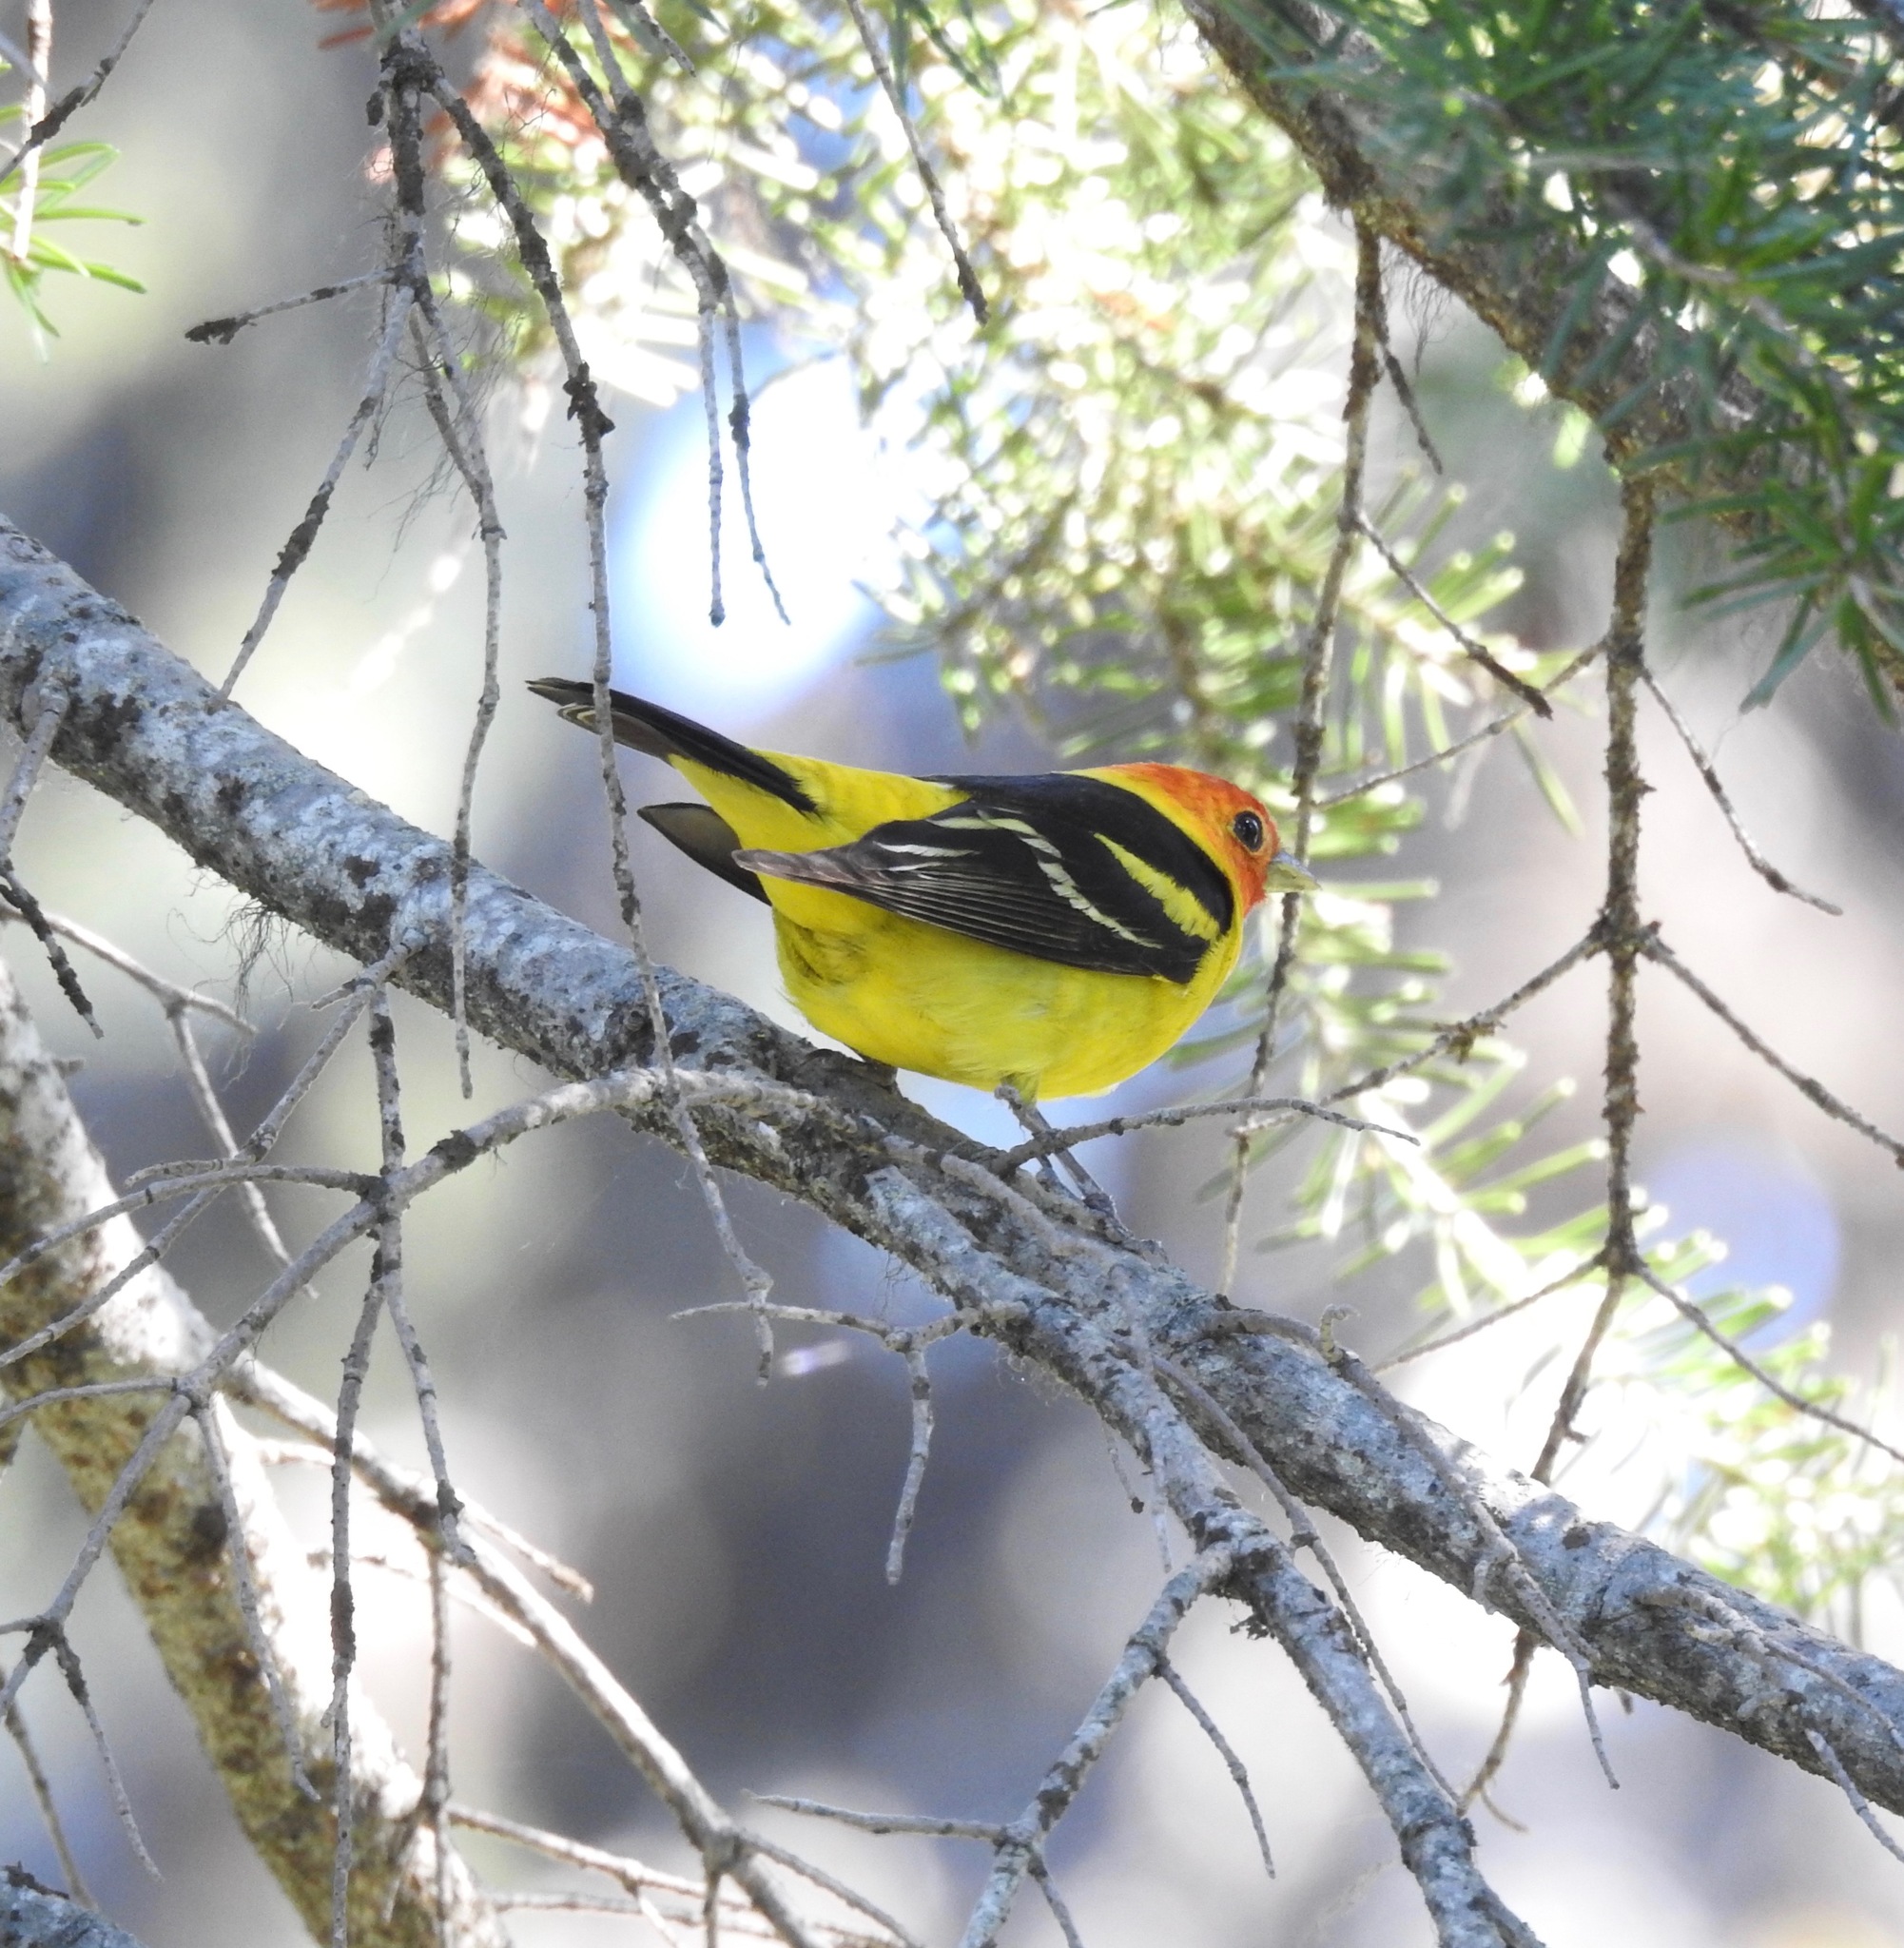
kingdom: Animalia
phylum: Chordata
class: Aves
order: Passeriformes
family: Cardinalidae
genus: Piranga
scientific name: Piranga ludoviciana
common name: Western tanager
